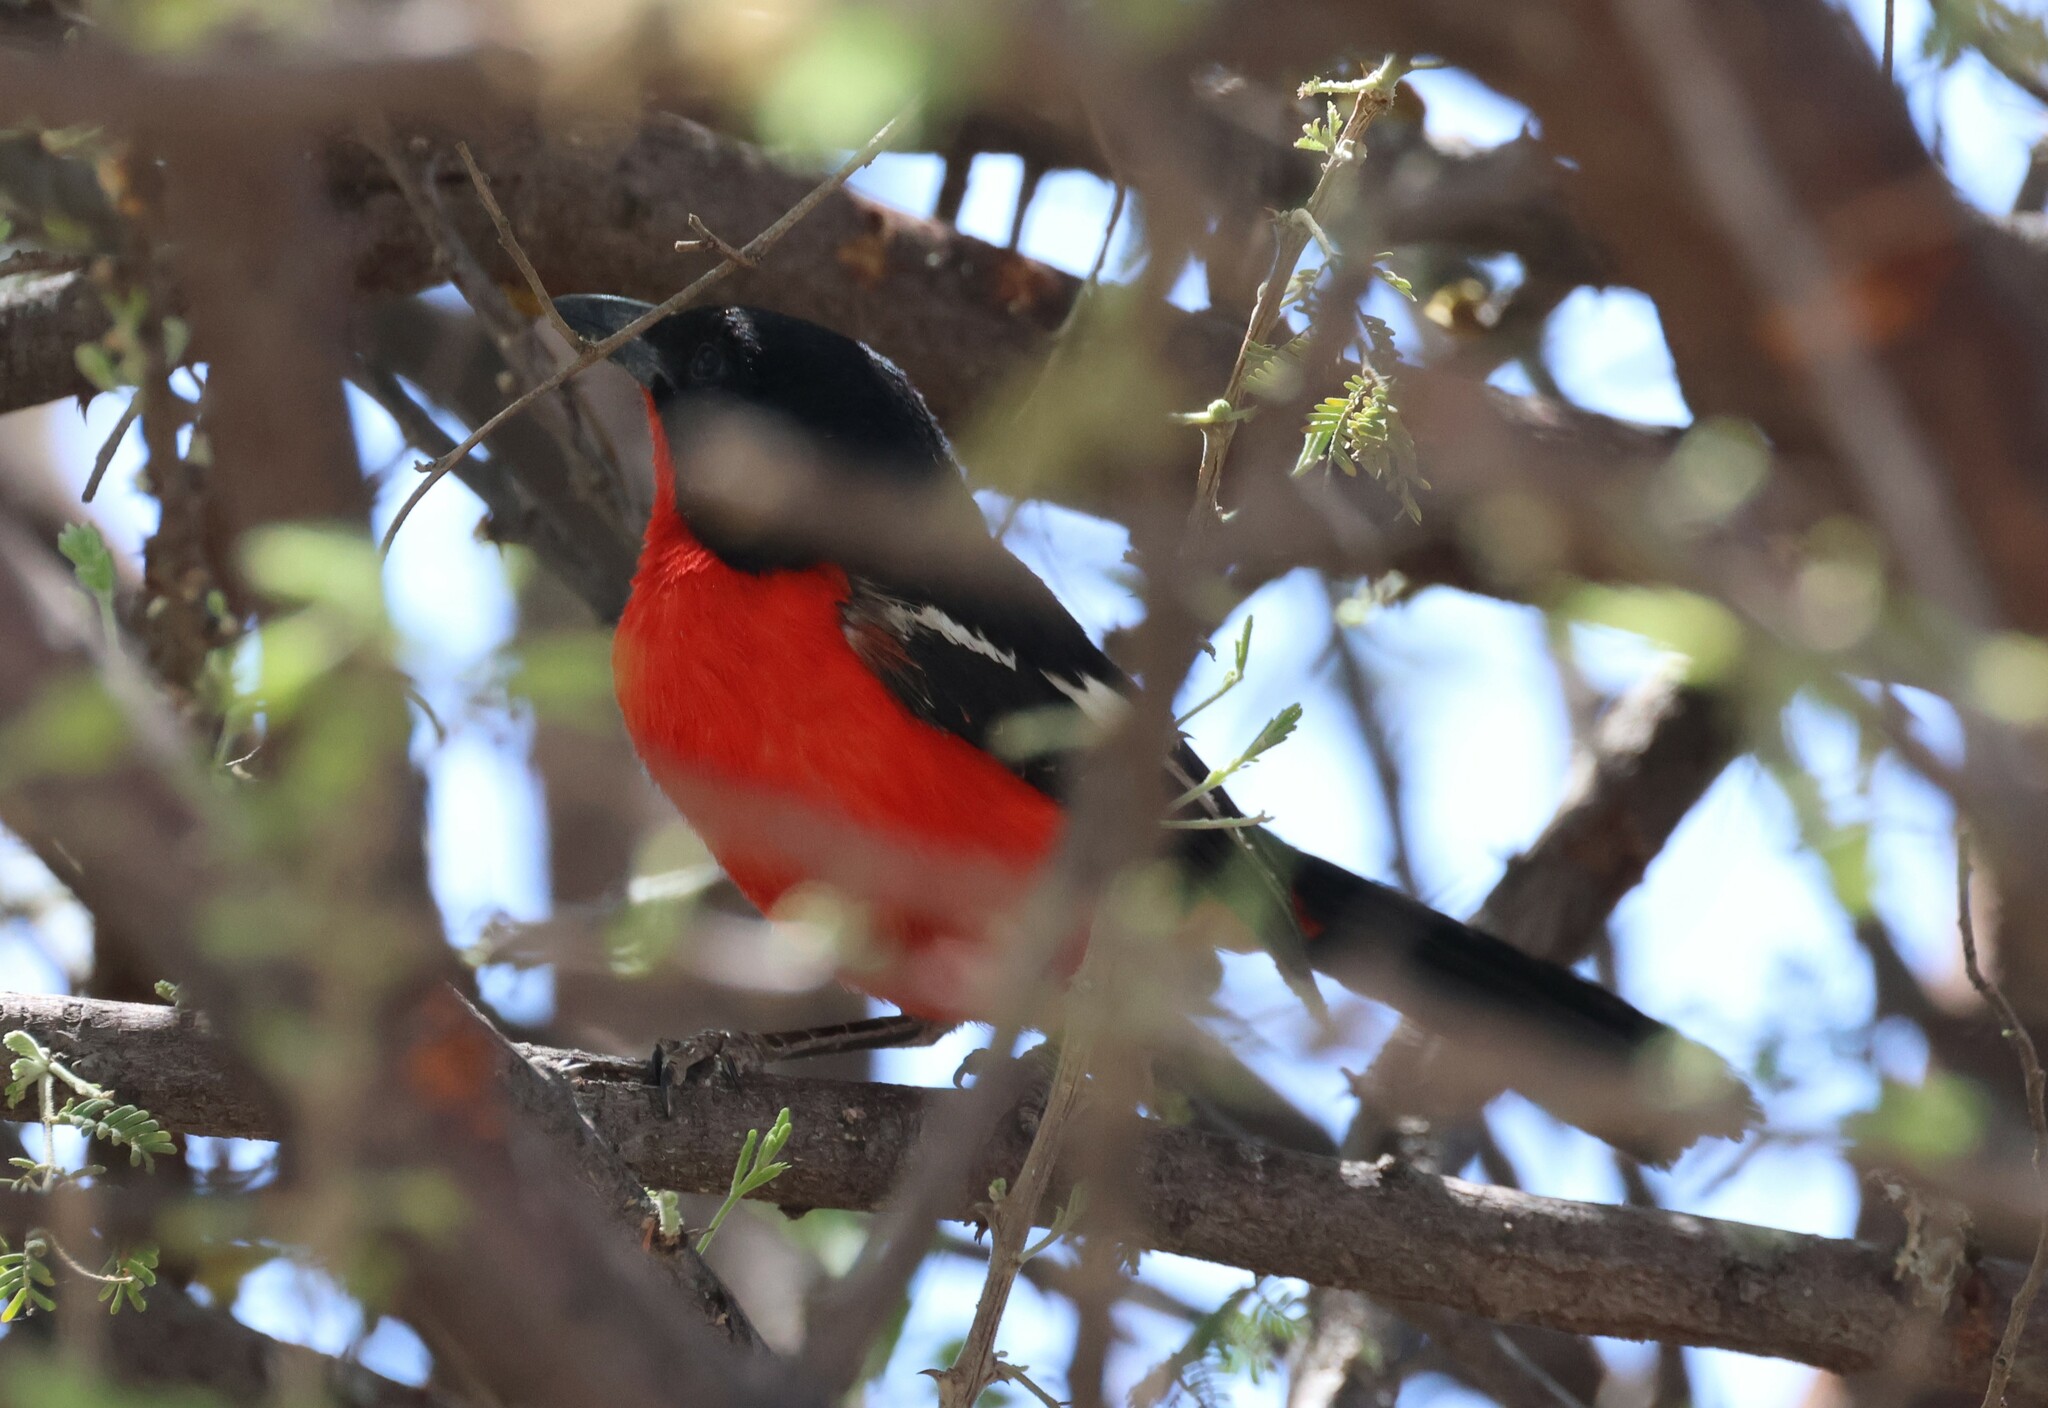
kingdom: Animalia
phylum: Chordata
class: Aves
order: Passeriformes
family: Malaconotidae
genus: Laniarius
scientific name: Laniarius atrococcineus
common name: Crimson-breasted shrike
